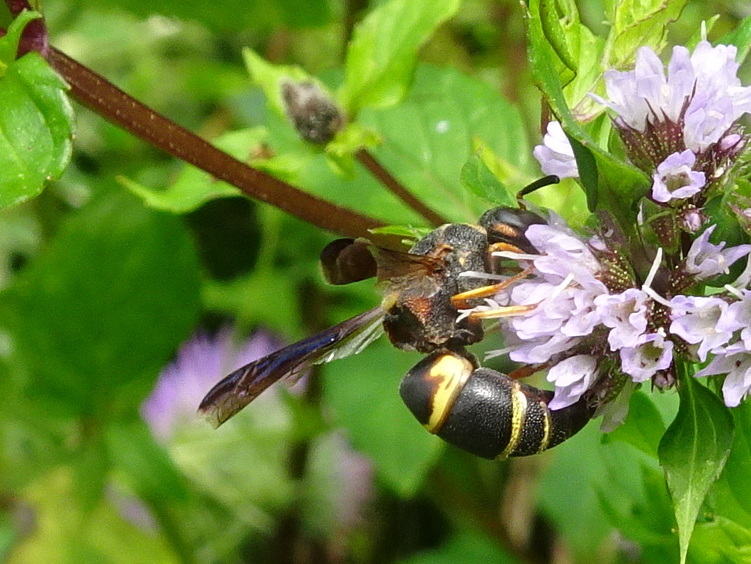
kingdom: Animalia
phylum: Arthropoda
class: Insecta
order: Hymenoptera
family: Eumenidae
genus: Euodynerus
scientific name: Euodynerus hidalgo
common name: Wasp
